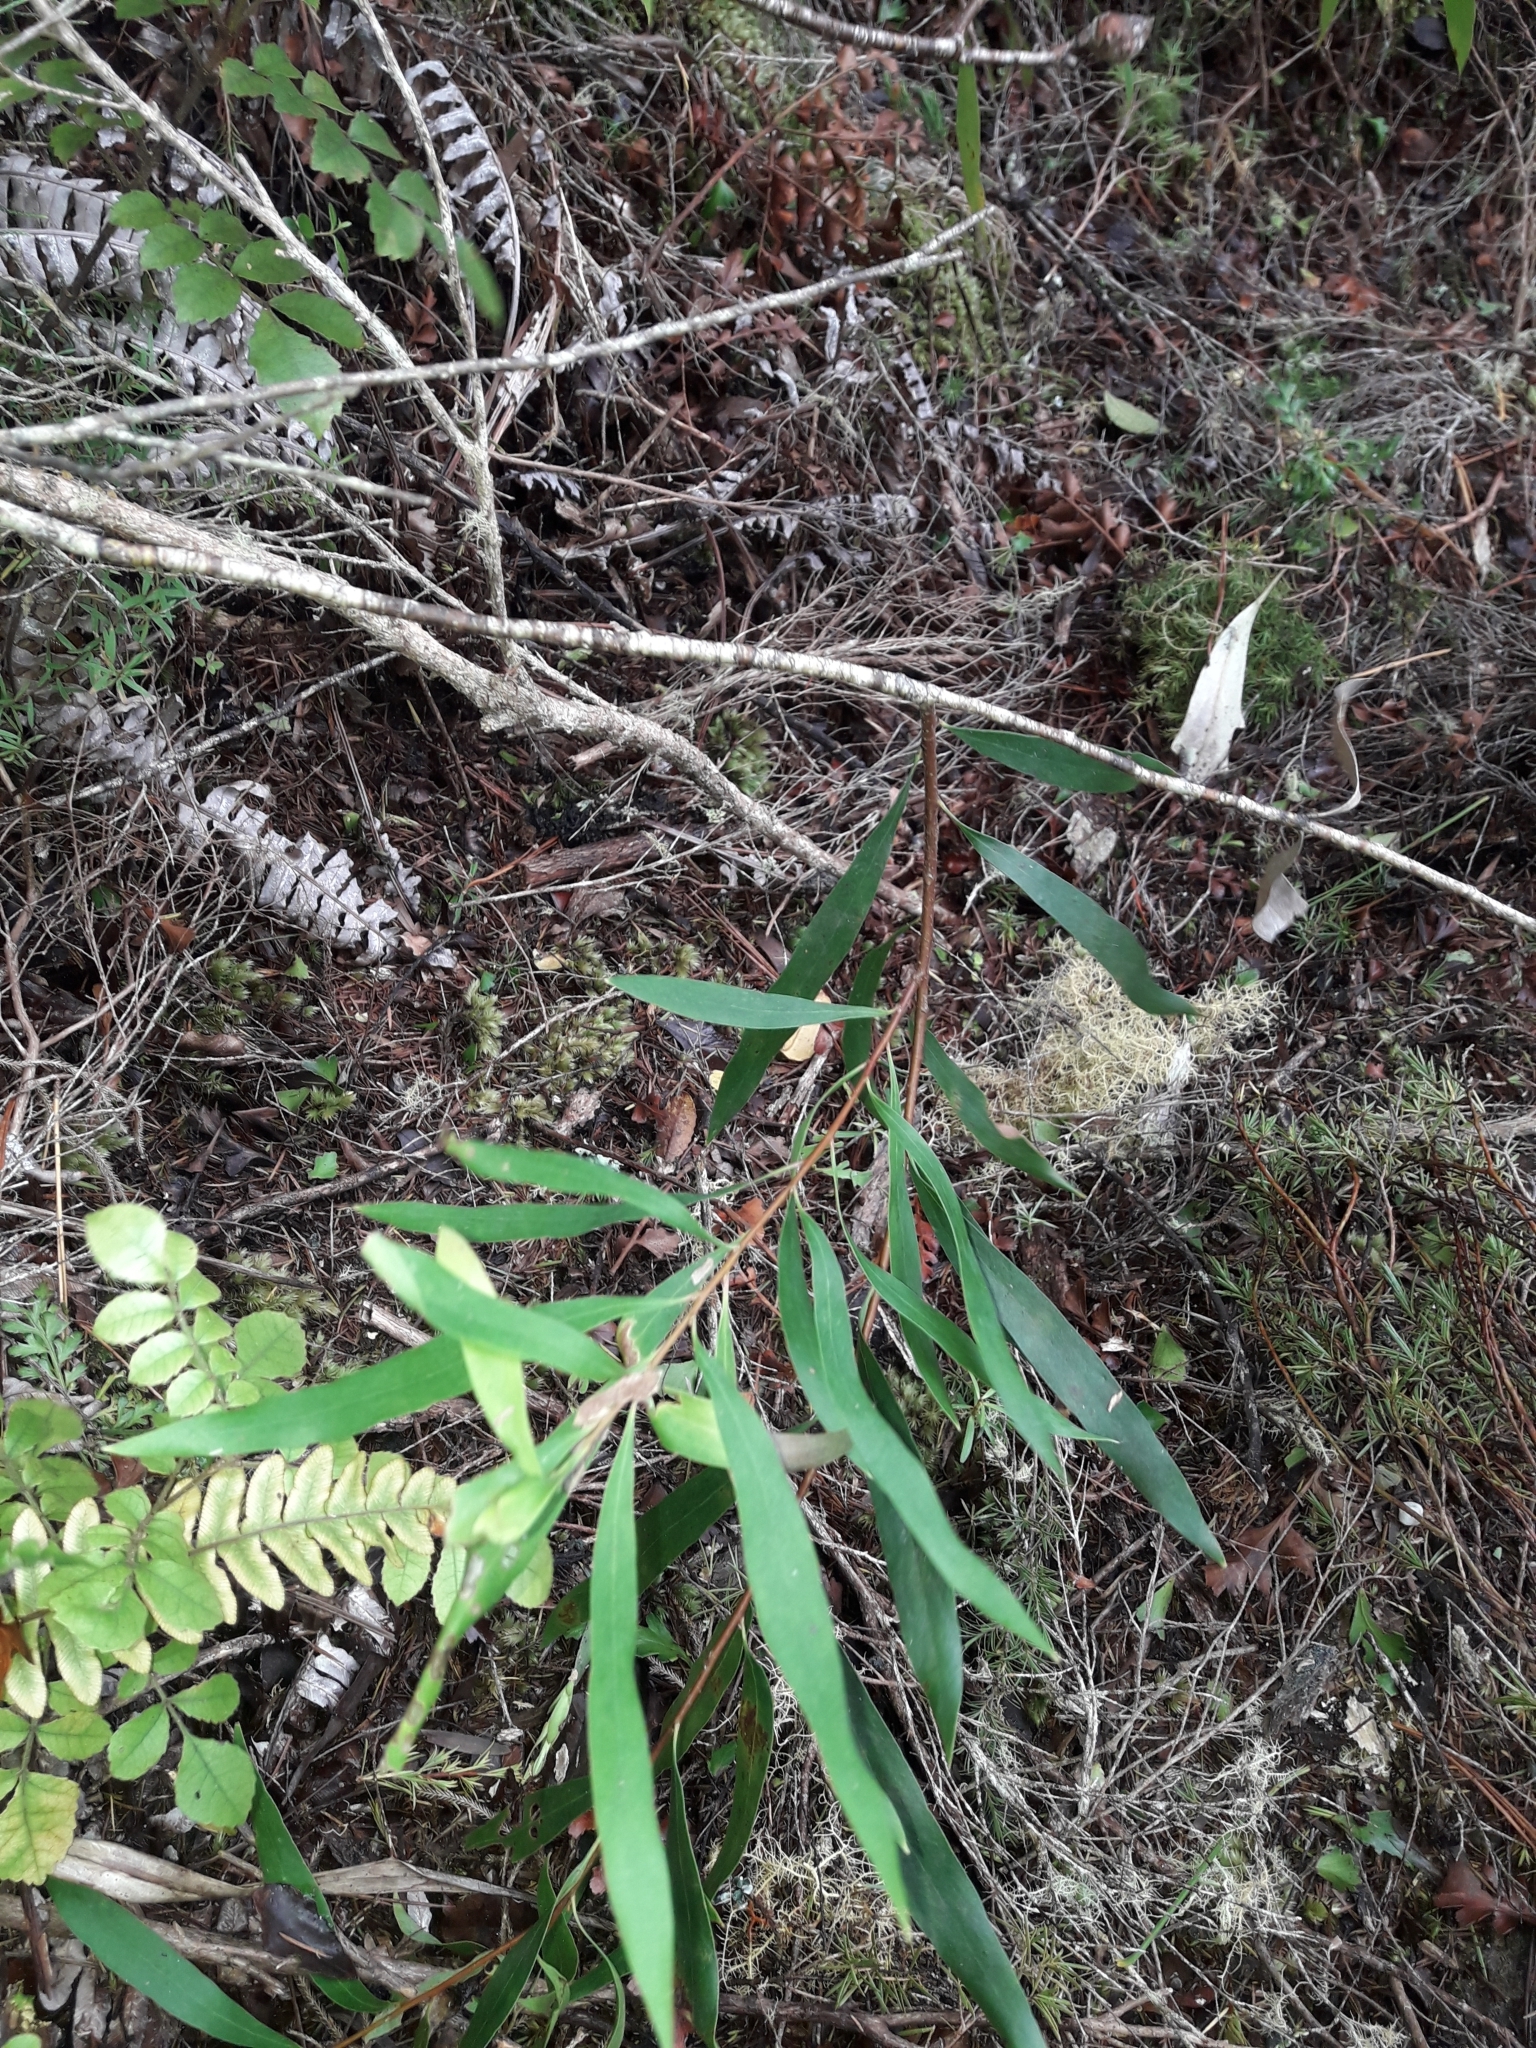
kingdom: Plantae
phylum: Tracheophyta
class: Magnoliopsida
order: Proteales
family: Proteaceae
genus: Hakea
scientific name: Hakea salicifolia
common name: Willow hakea
